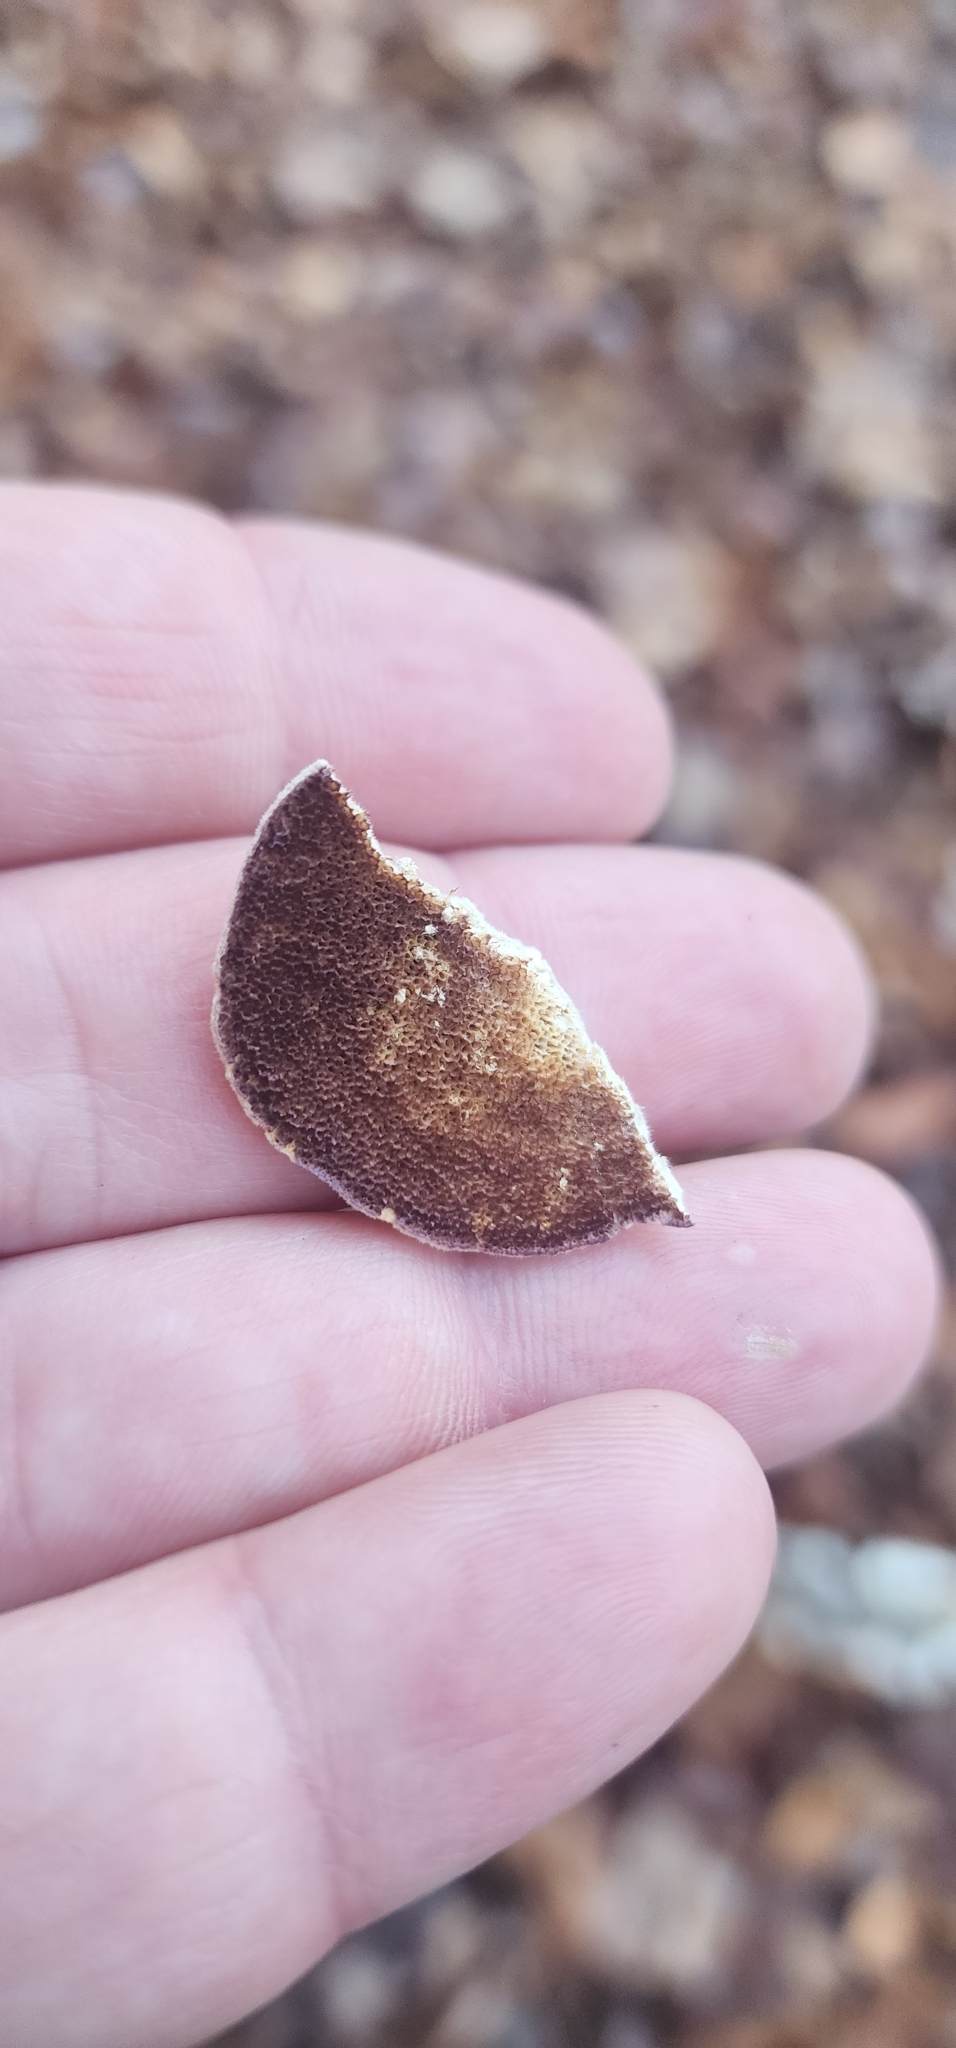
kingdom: Fungi
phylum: Basidiomycota
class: Agaricomycetes
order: Hymenochaetales
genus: Trichaptum
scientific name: Trichaptum biforme
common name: Violet-toothed polypore
